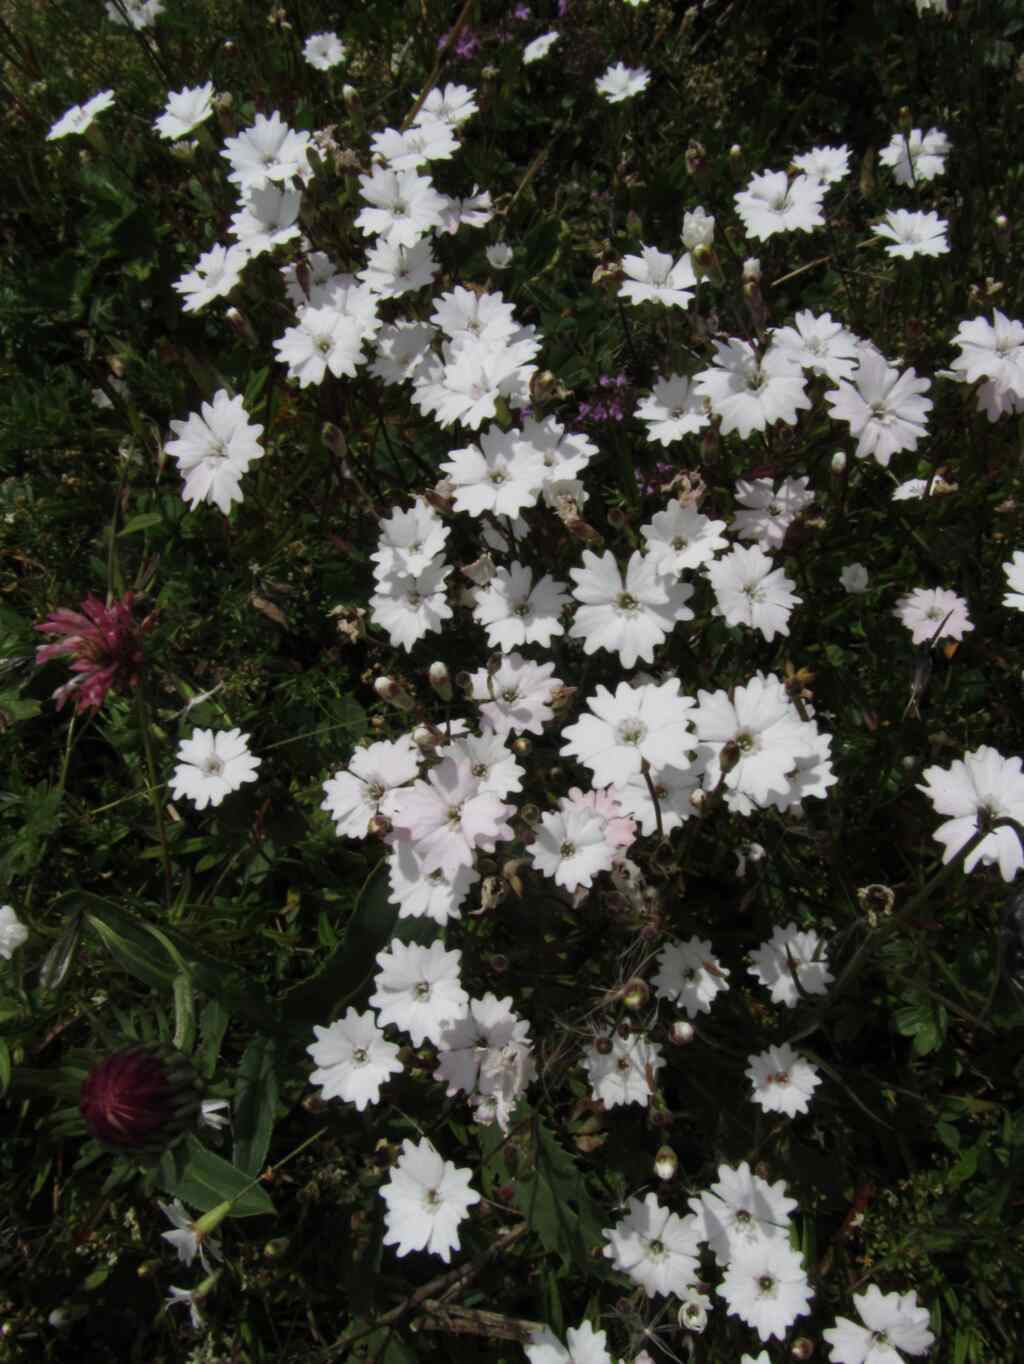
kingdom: Plantae
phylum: Tracheophyta
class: Magnoliopsida
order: Caryophyllales
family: Caryophyllaceae
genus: Heliosperma
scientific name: Heliosperma alpestre
